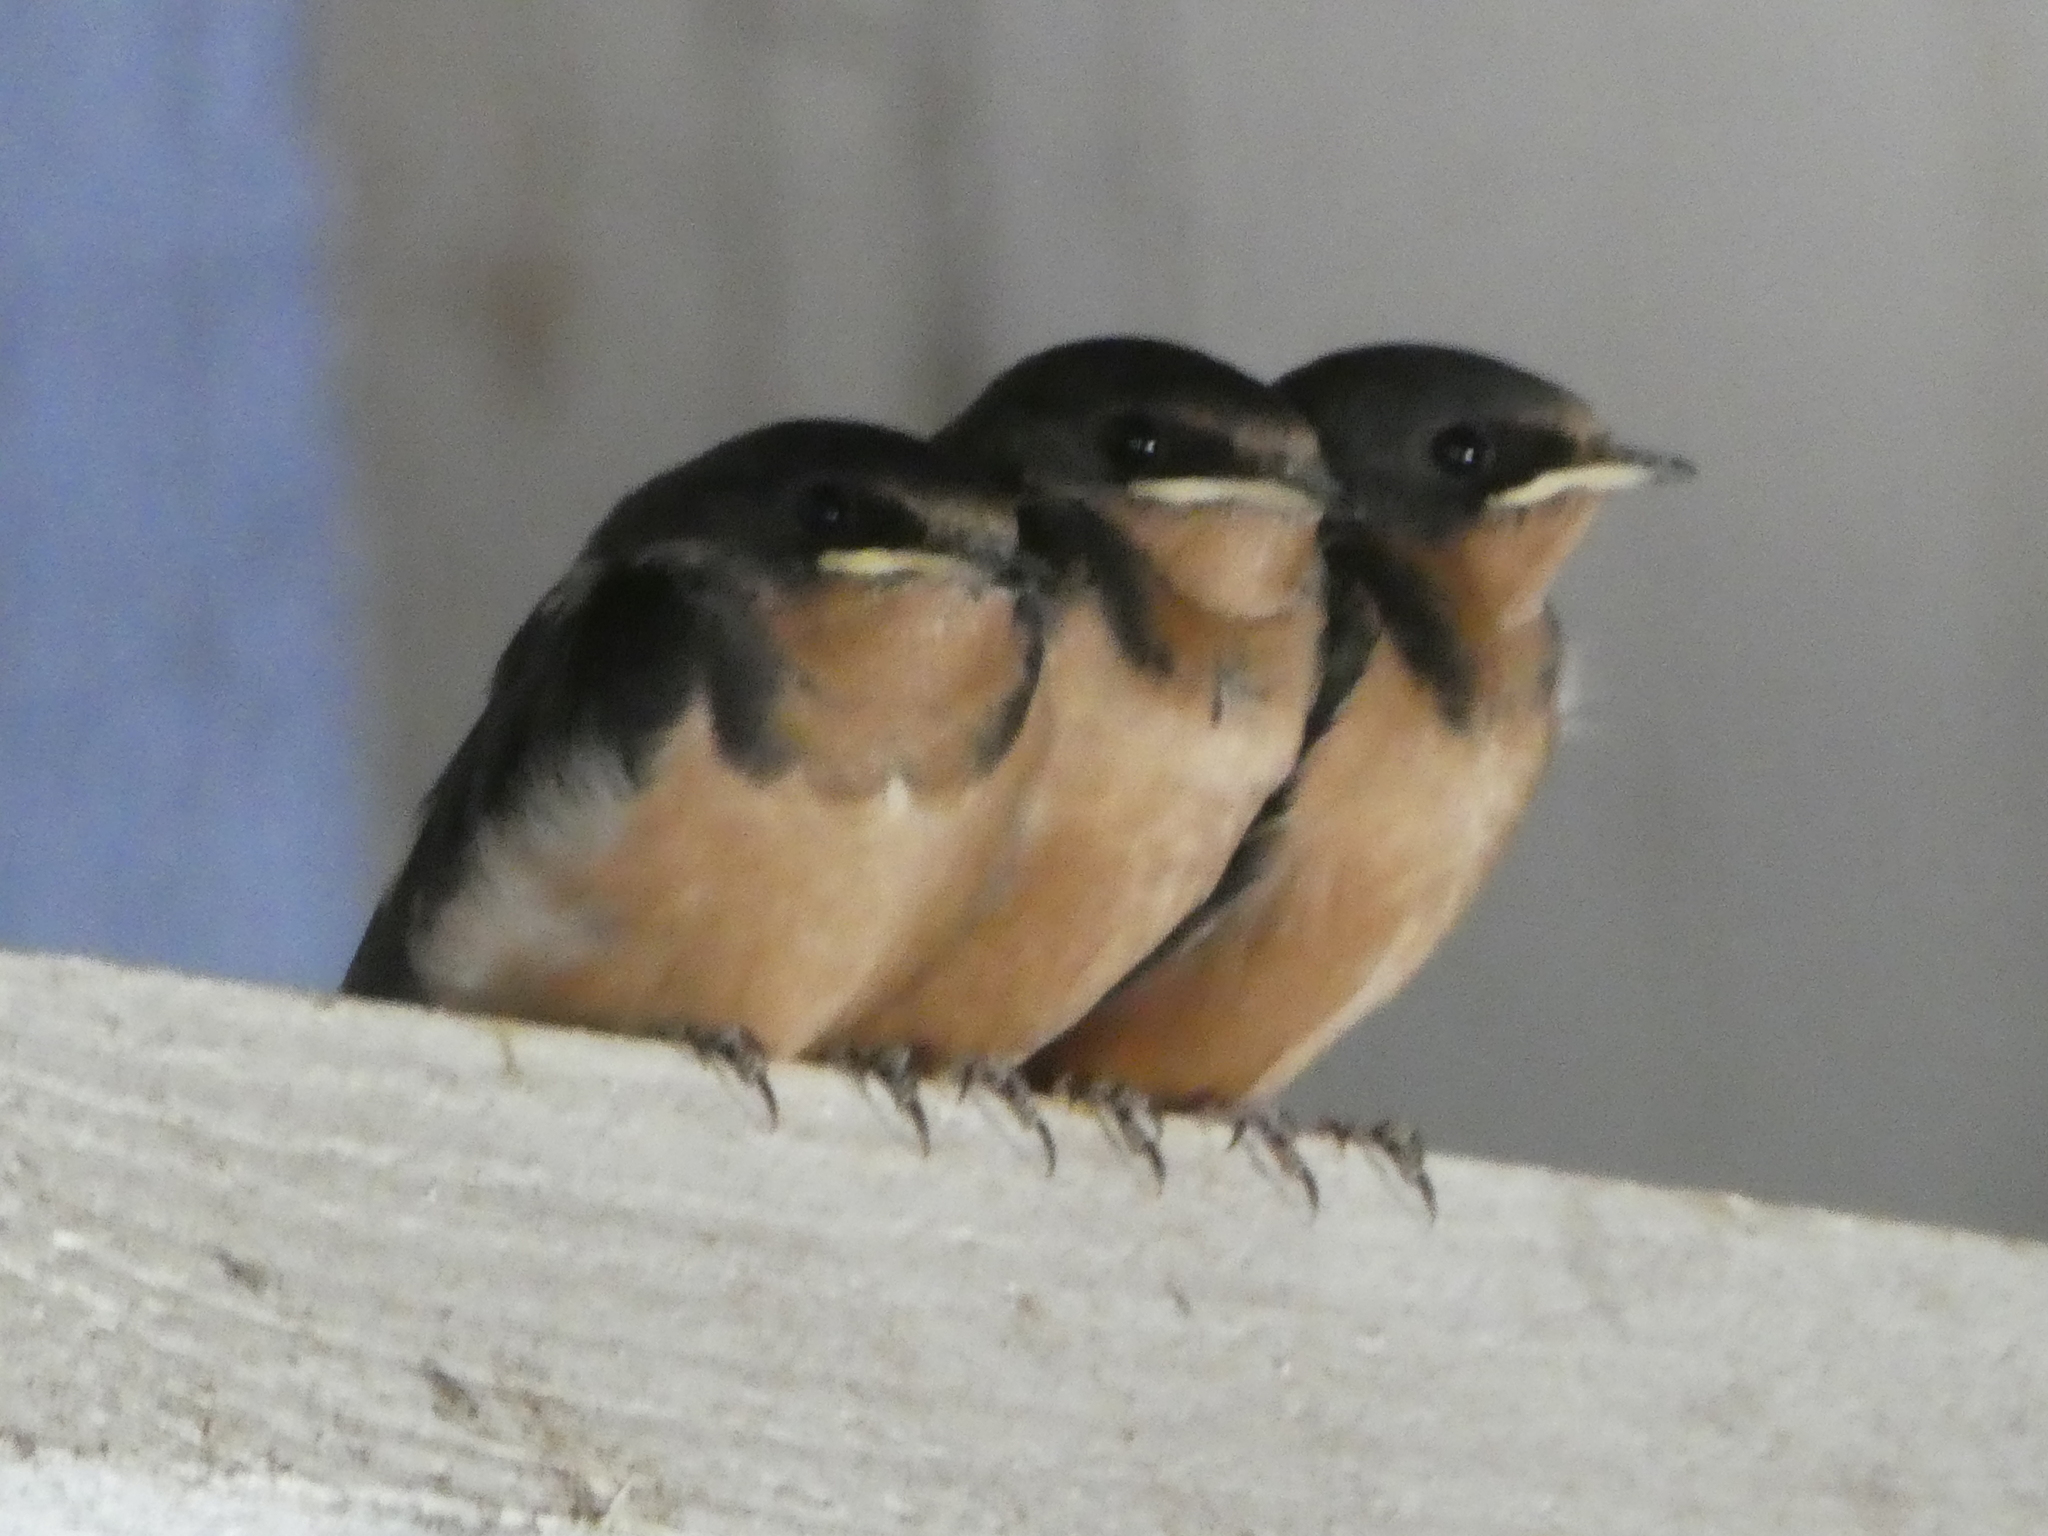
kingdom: Animalia
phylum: Chordata
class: Aves
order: Passeriformes
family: Hirundinidae
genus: Hirundo
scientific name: Hirundo rustica
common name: Barn swallow
